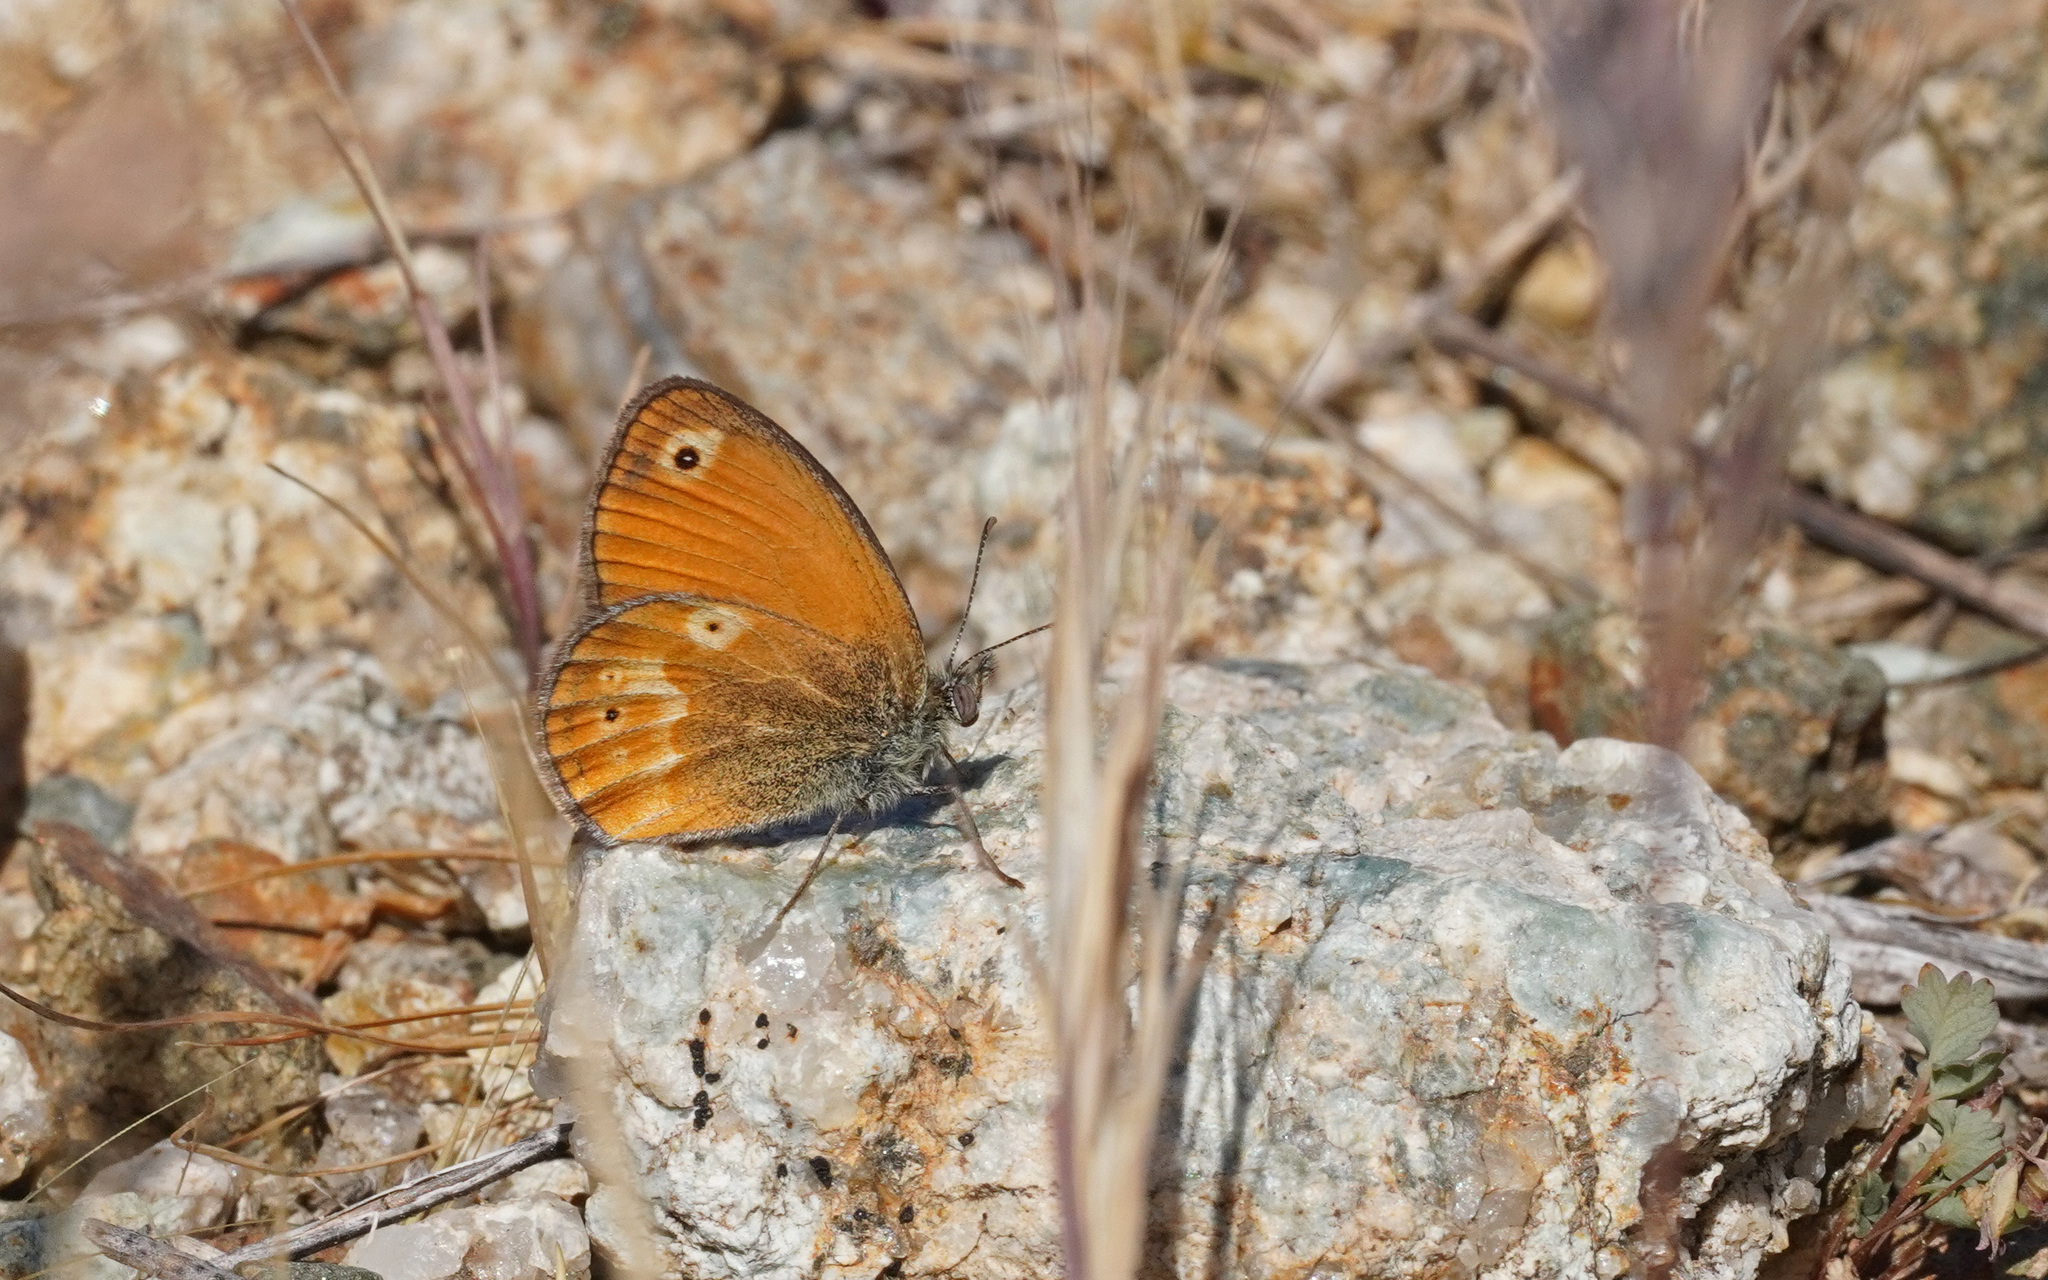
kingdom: Animalia
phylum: Arthropoda
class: Insecta
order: Lepidoptera
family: Nymphalidae
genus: Coenonympha
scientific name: Coenonympha corinna
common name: Corsican heath
